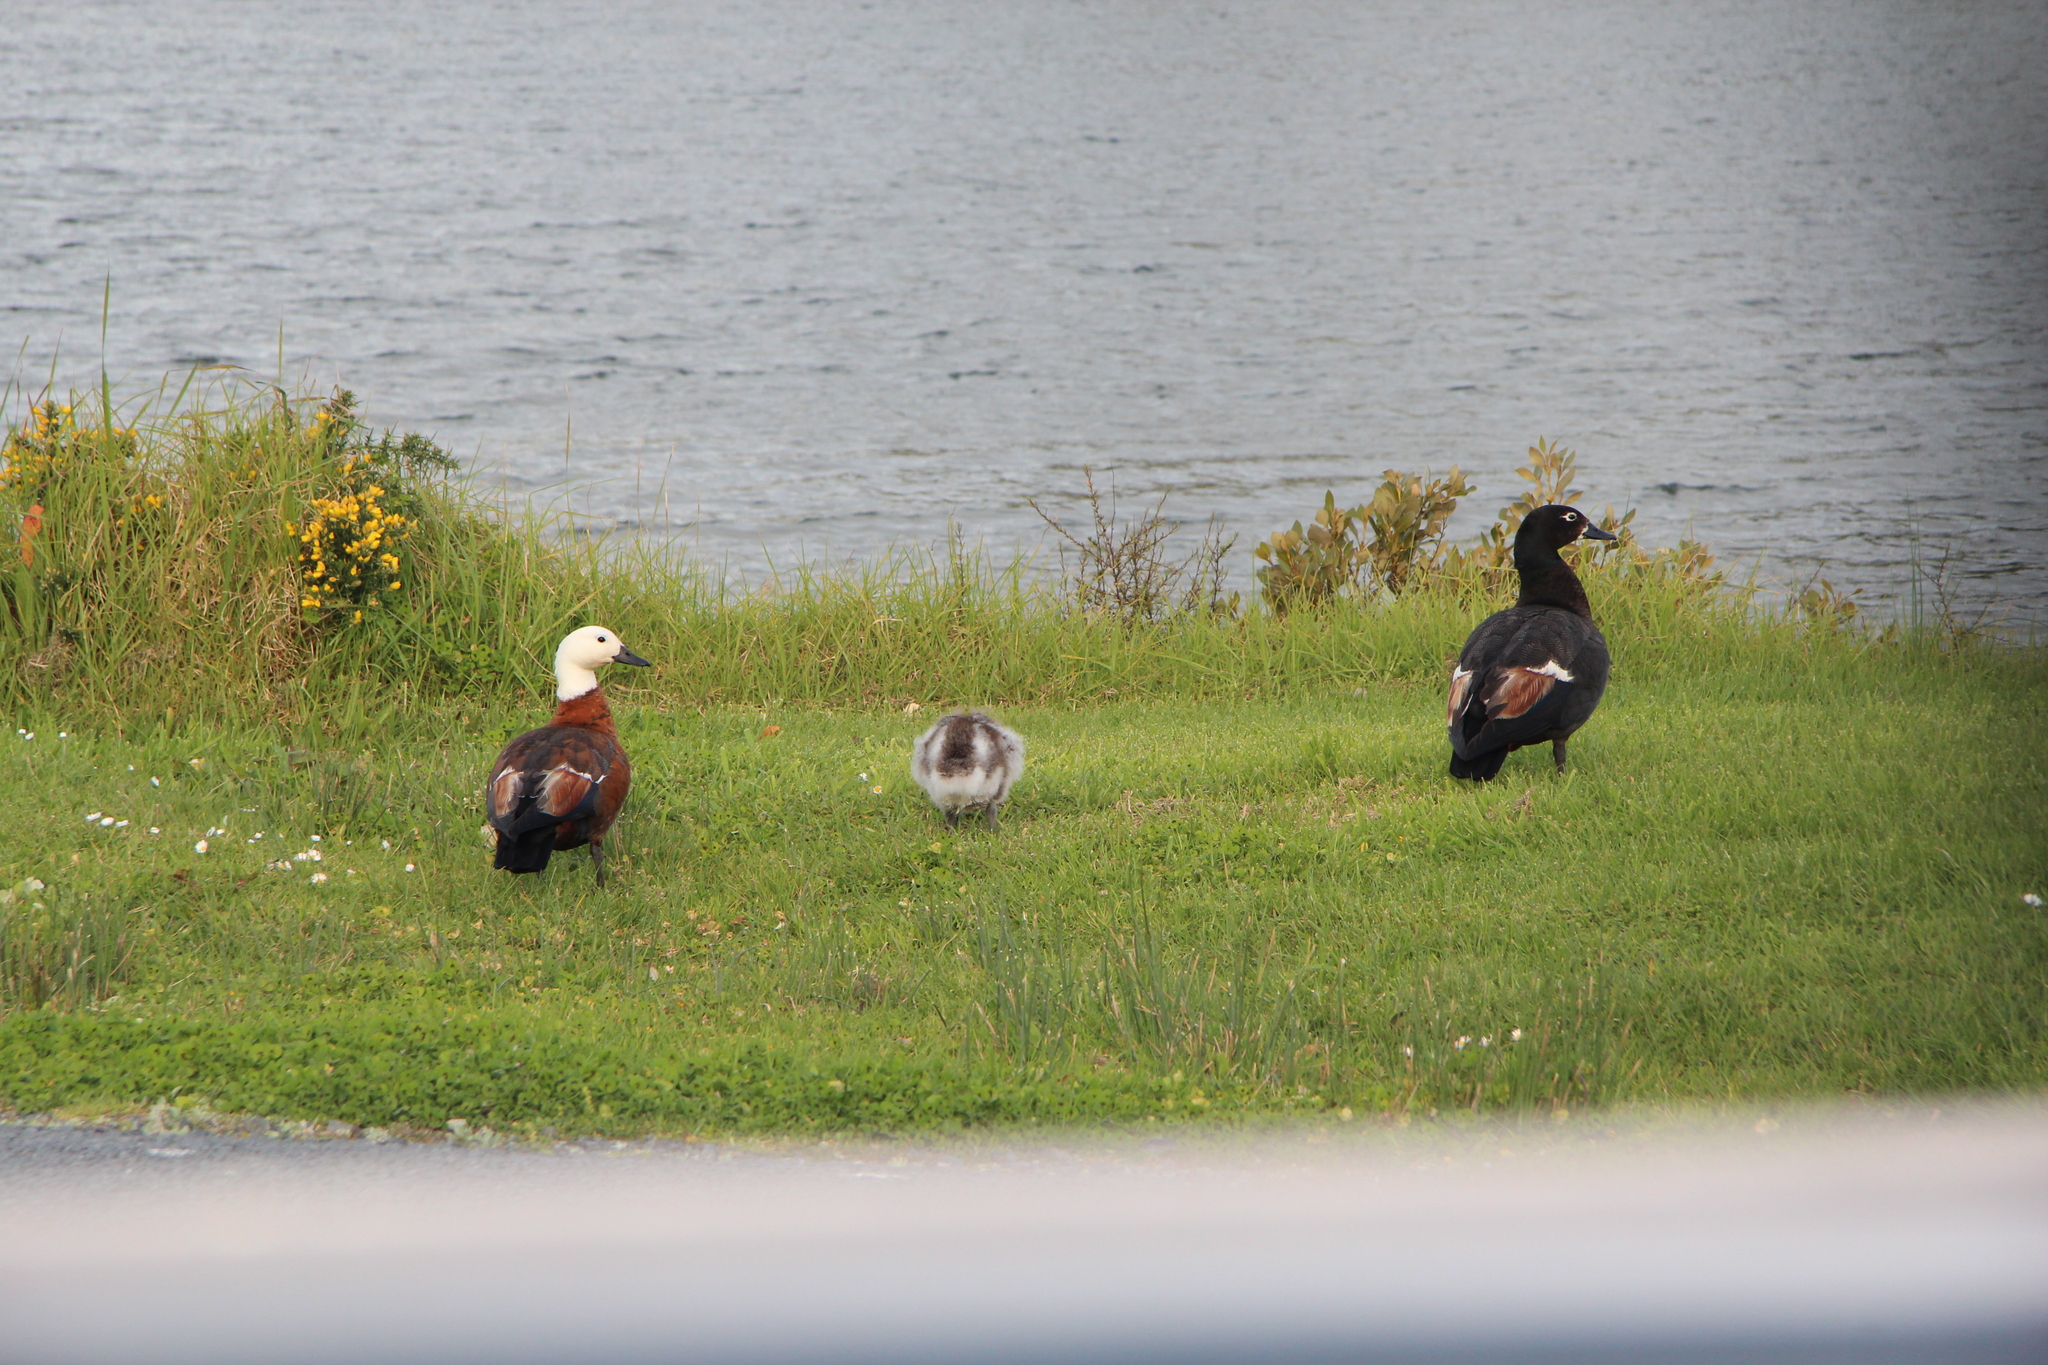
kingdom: Animalia
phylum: Chordata
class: Aves
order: Anseriformes
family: Anatidae
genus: Tadorna
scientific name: Tadorna variegata
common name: Paradise shelduck
